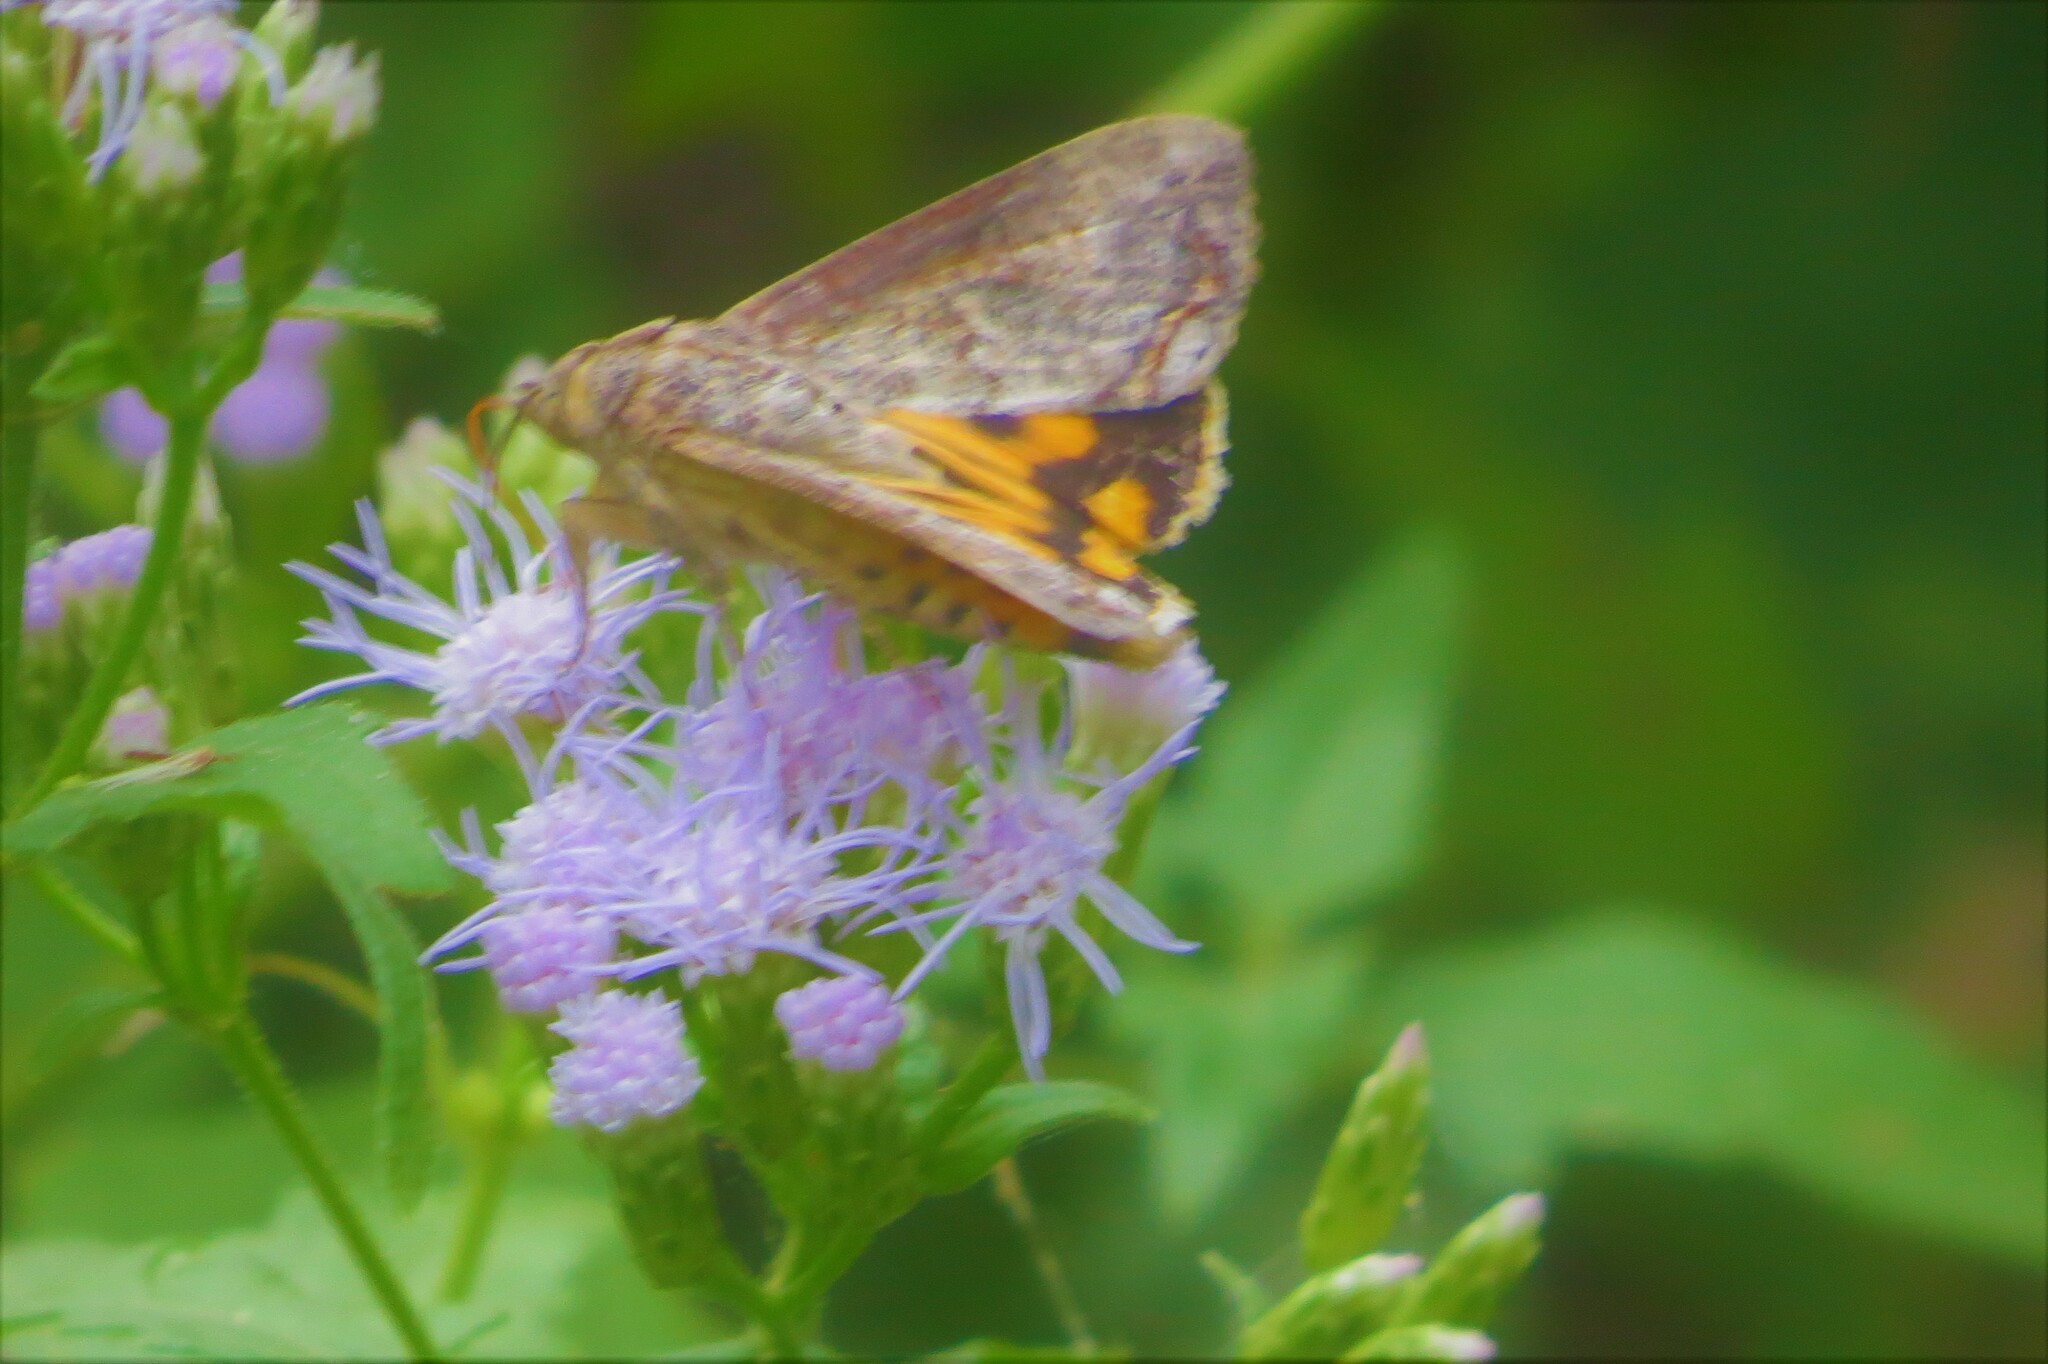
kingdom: Animalia
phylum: Arthropoda
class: Insecta
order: Lepidoptera
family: Erebidae
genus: Hypocala
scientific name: Hypocala andremona
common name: Hypocala moth
